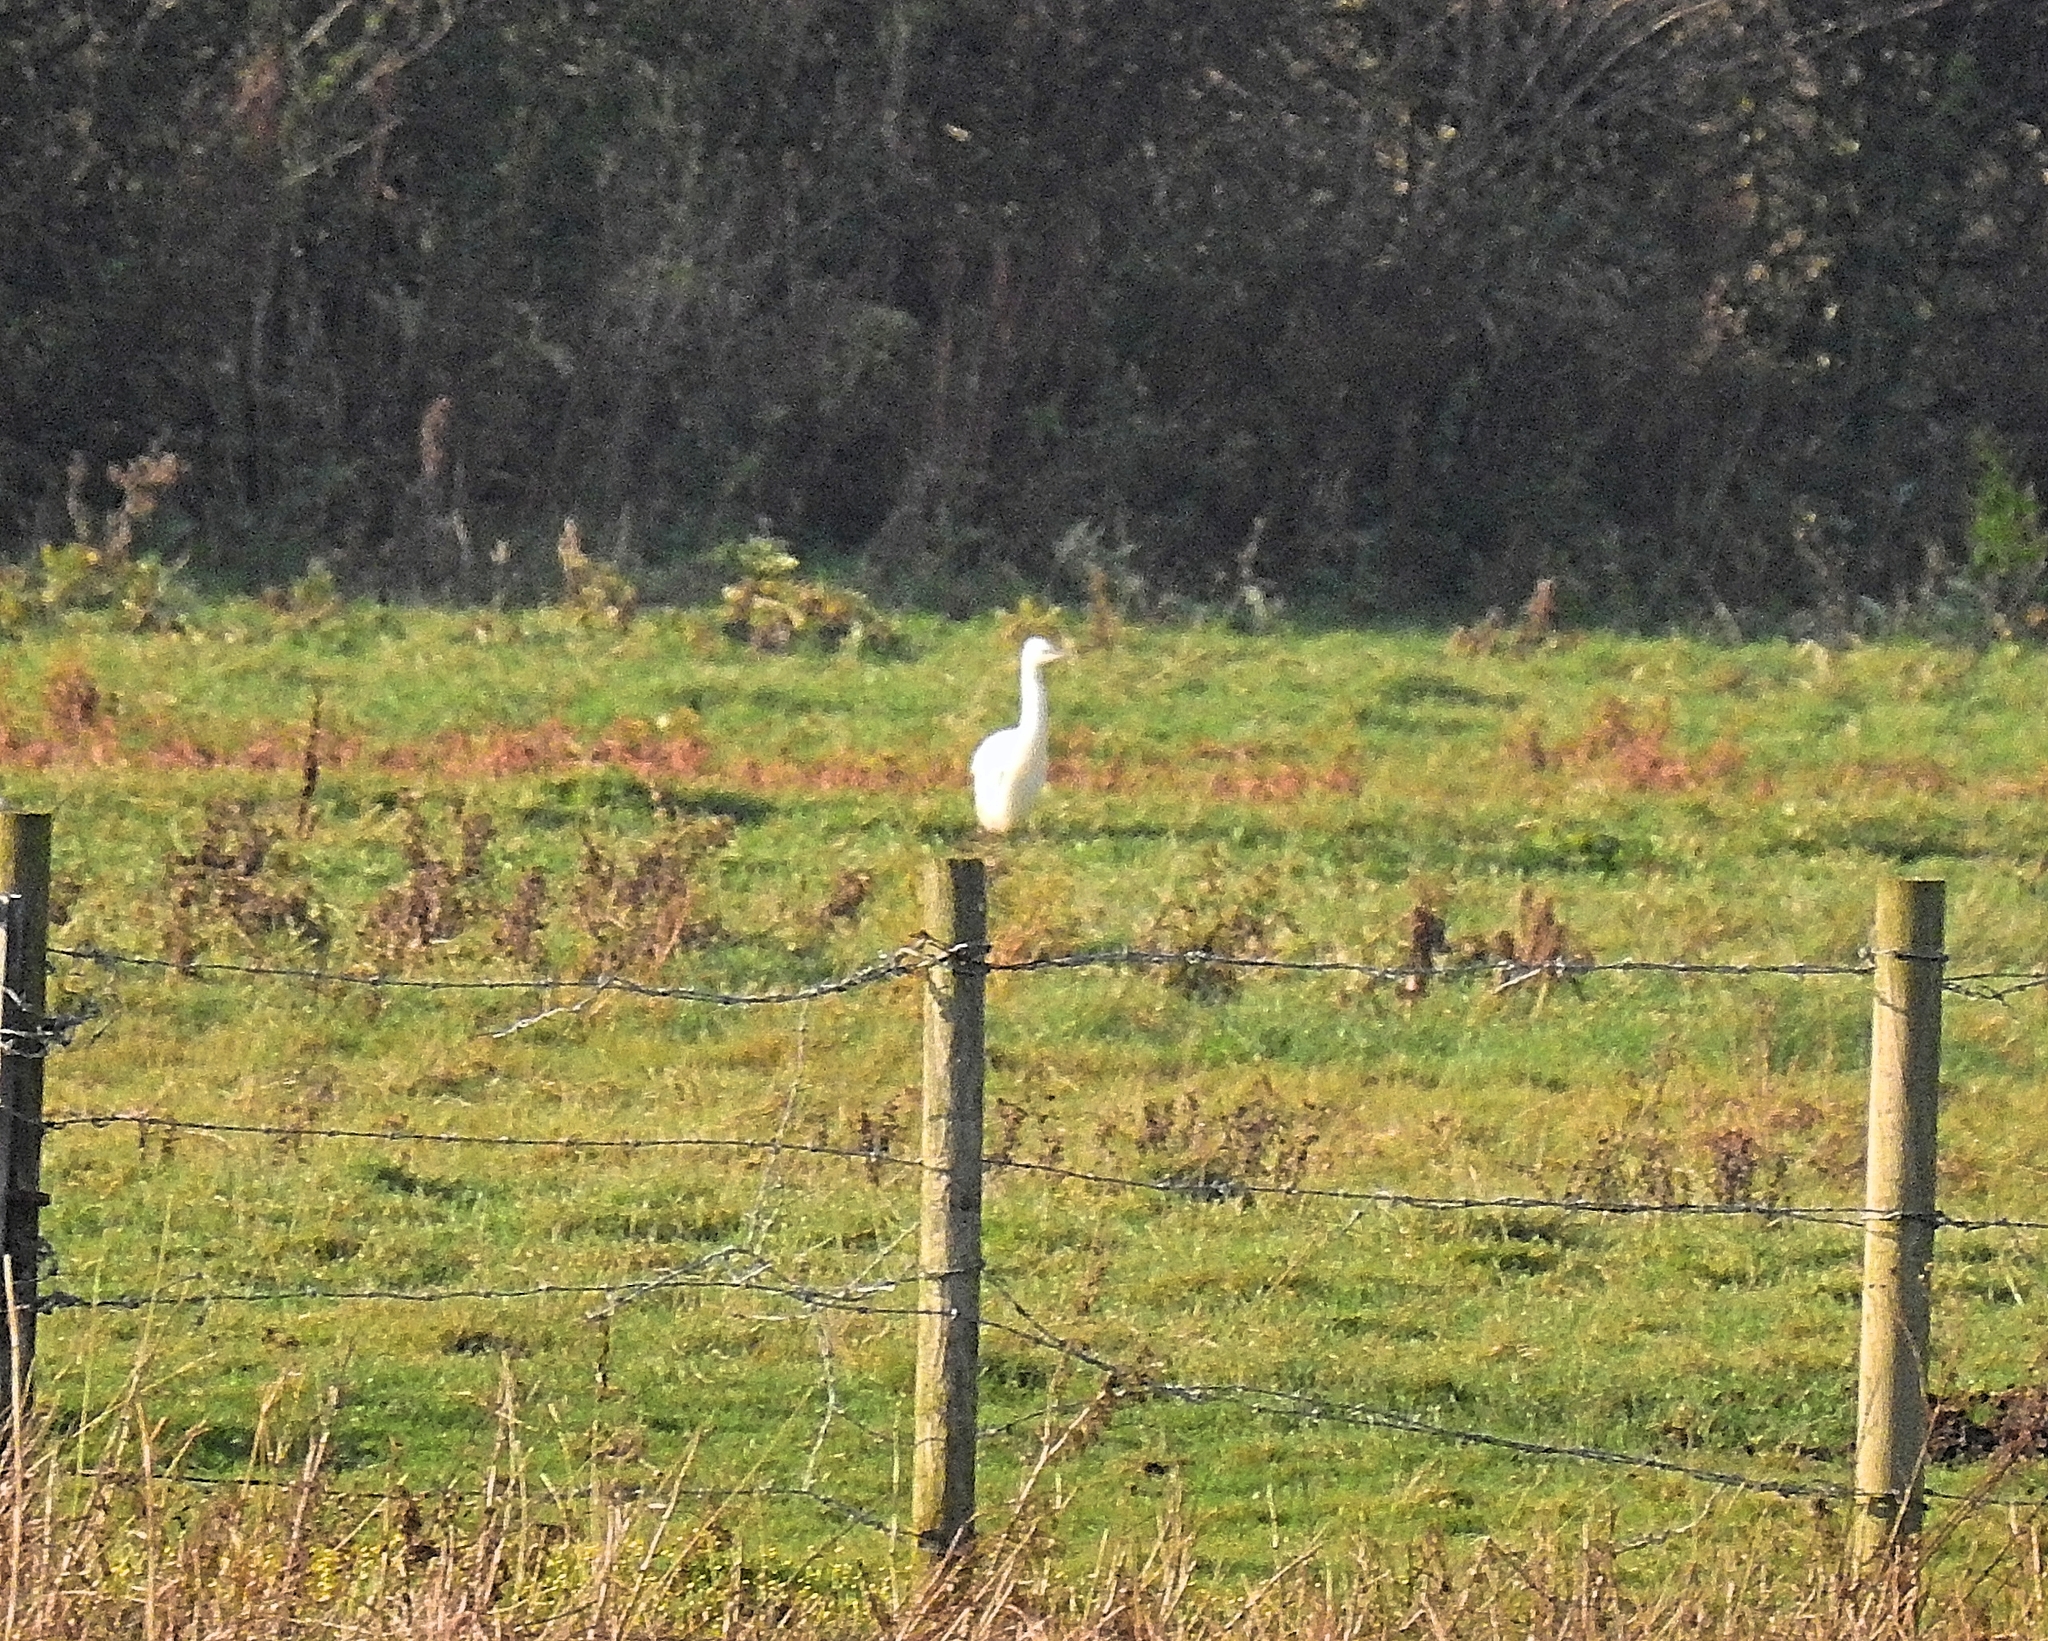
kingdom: Animalia
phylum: Chordata
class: Aves
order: Pelecaniformes
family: Ardeidae
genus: Bubulcus
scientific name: Bubulcus ibis
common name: Cattle egret
